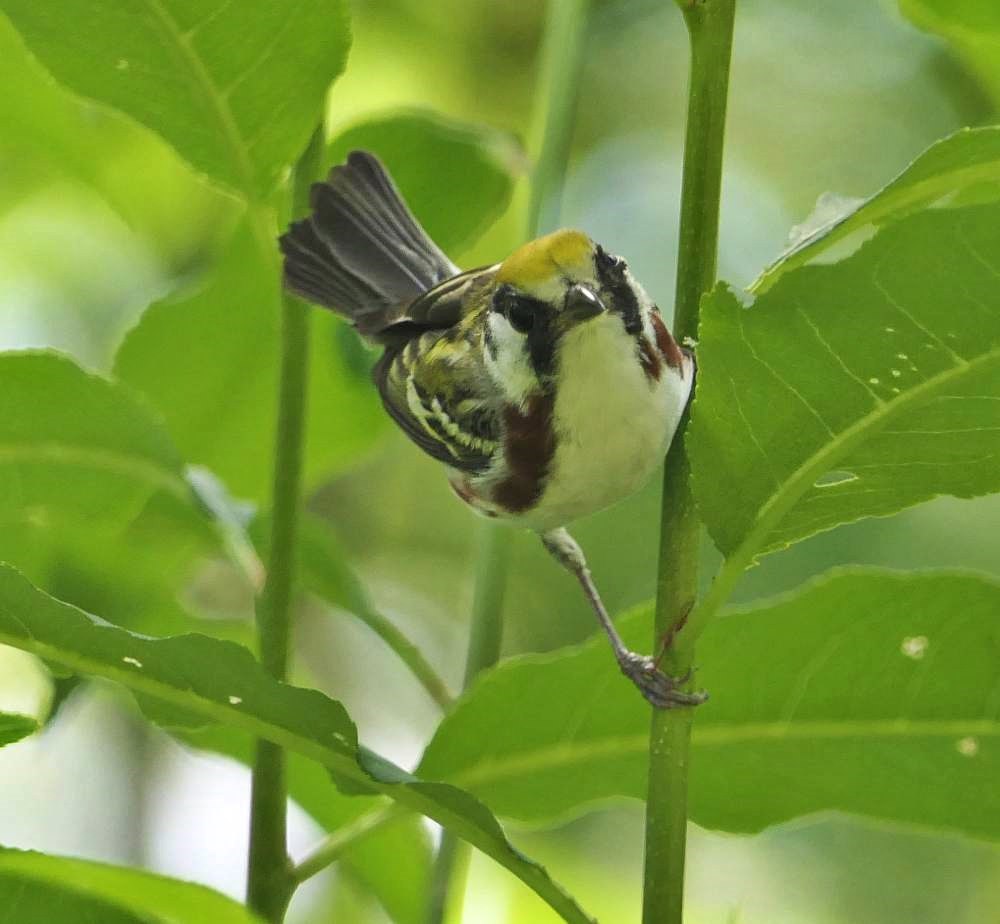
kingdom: Animalia
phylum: Chordata
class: Aves
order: Passeriformes
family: Parulidae
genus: Setophaga
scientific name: Setophaga pensylvanica
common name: Chestnut-sided warbler
